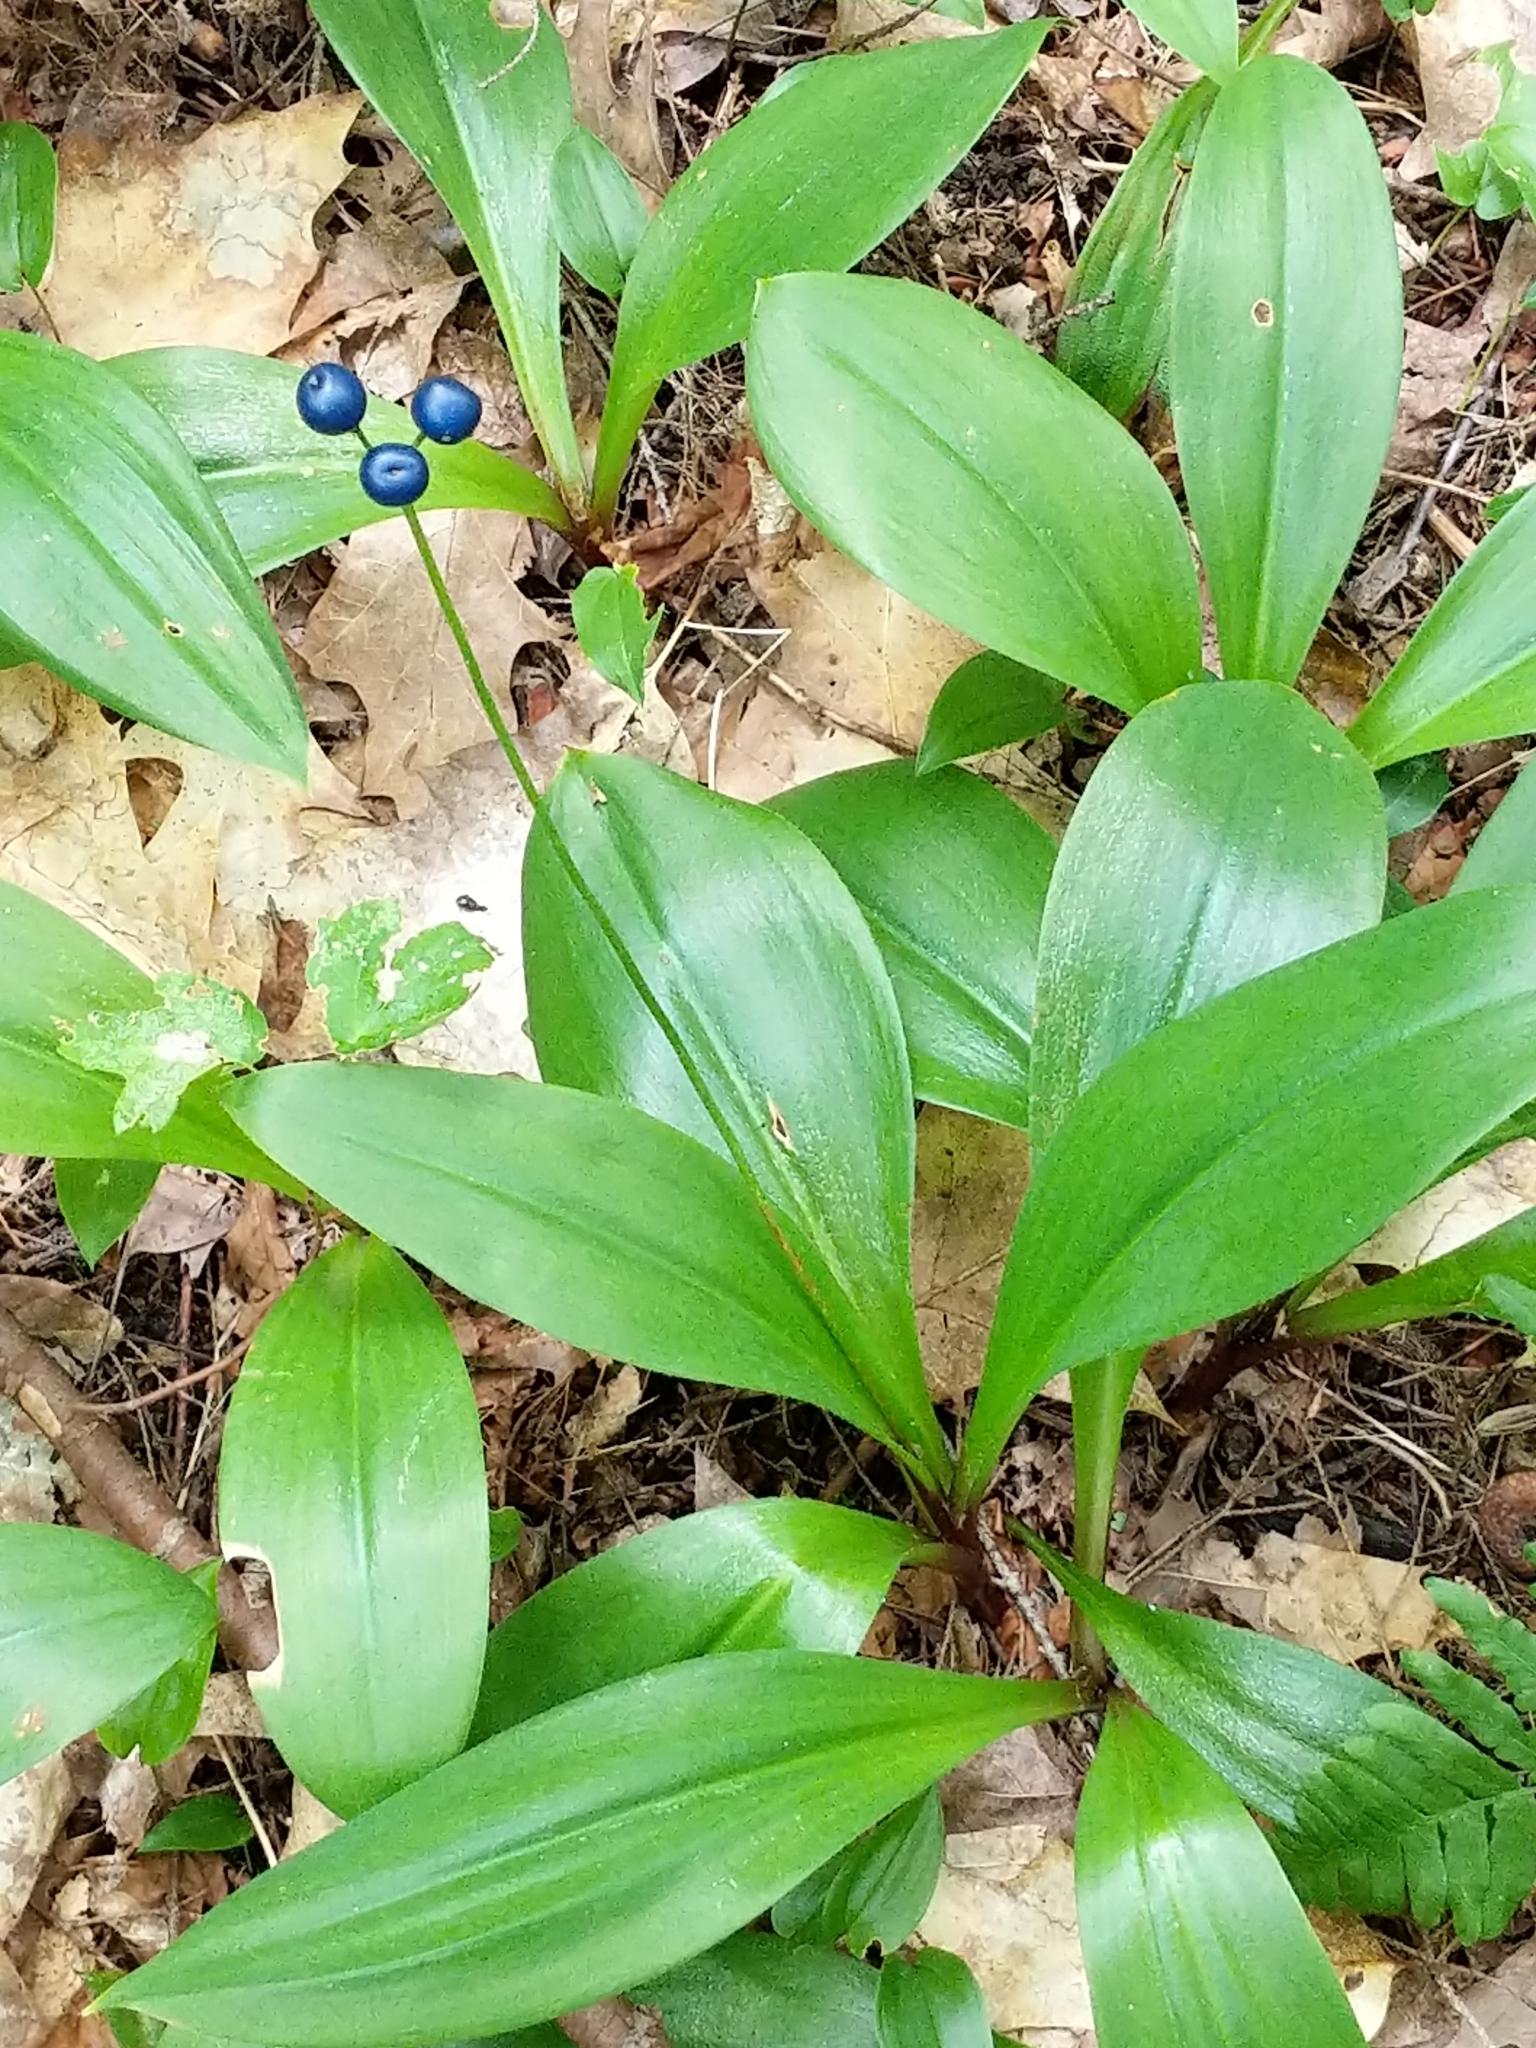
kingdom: Plantae
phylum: Tracheophyta
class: Liliopsida
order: Liliales
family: Liliaceae
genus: Clintonia
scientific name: Clintonia borealis
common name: Yellow clintonia
